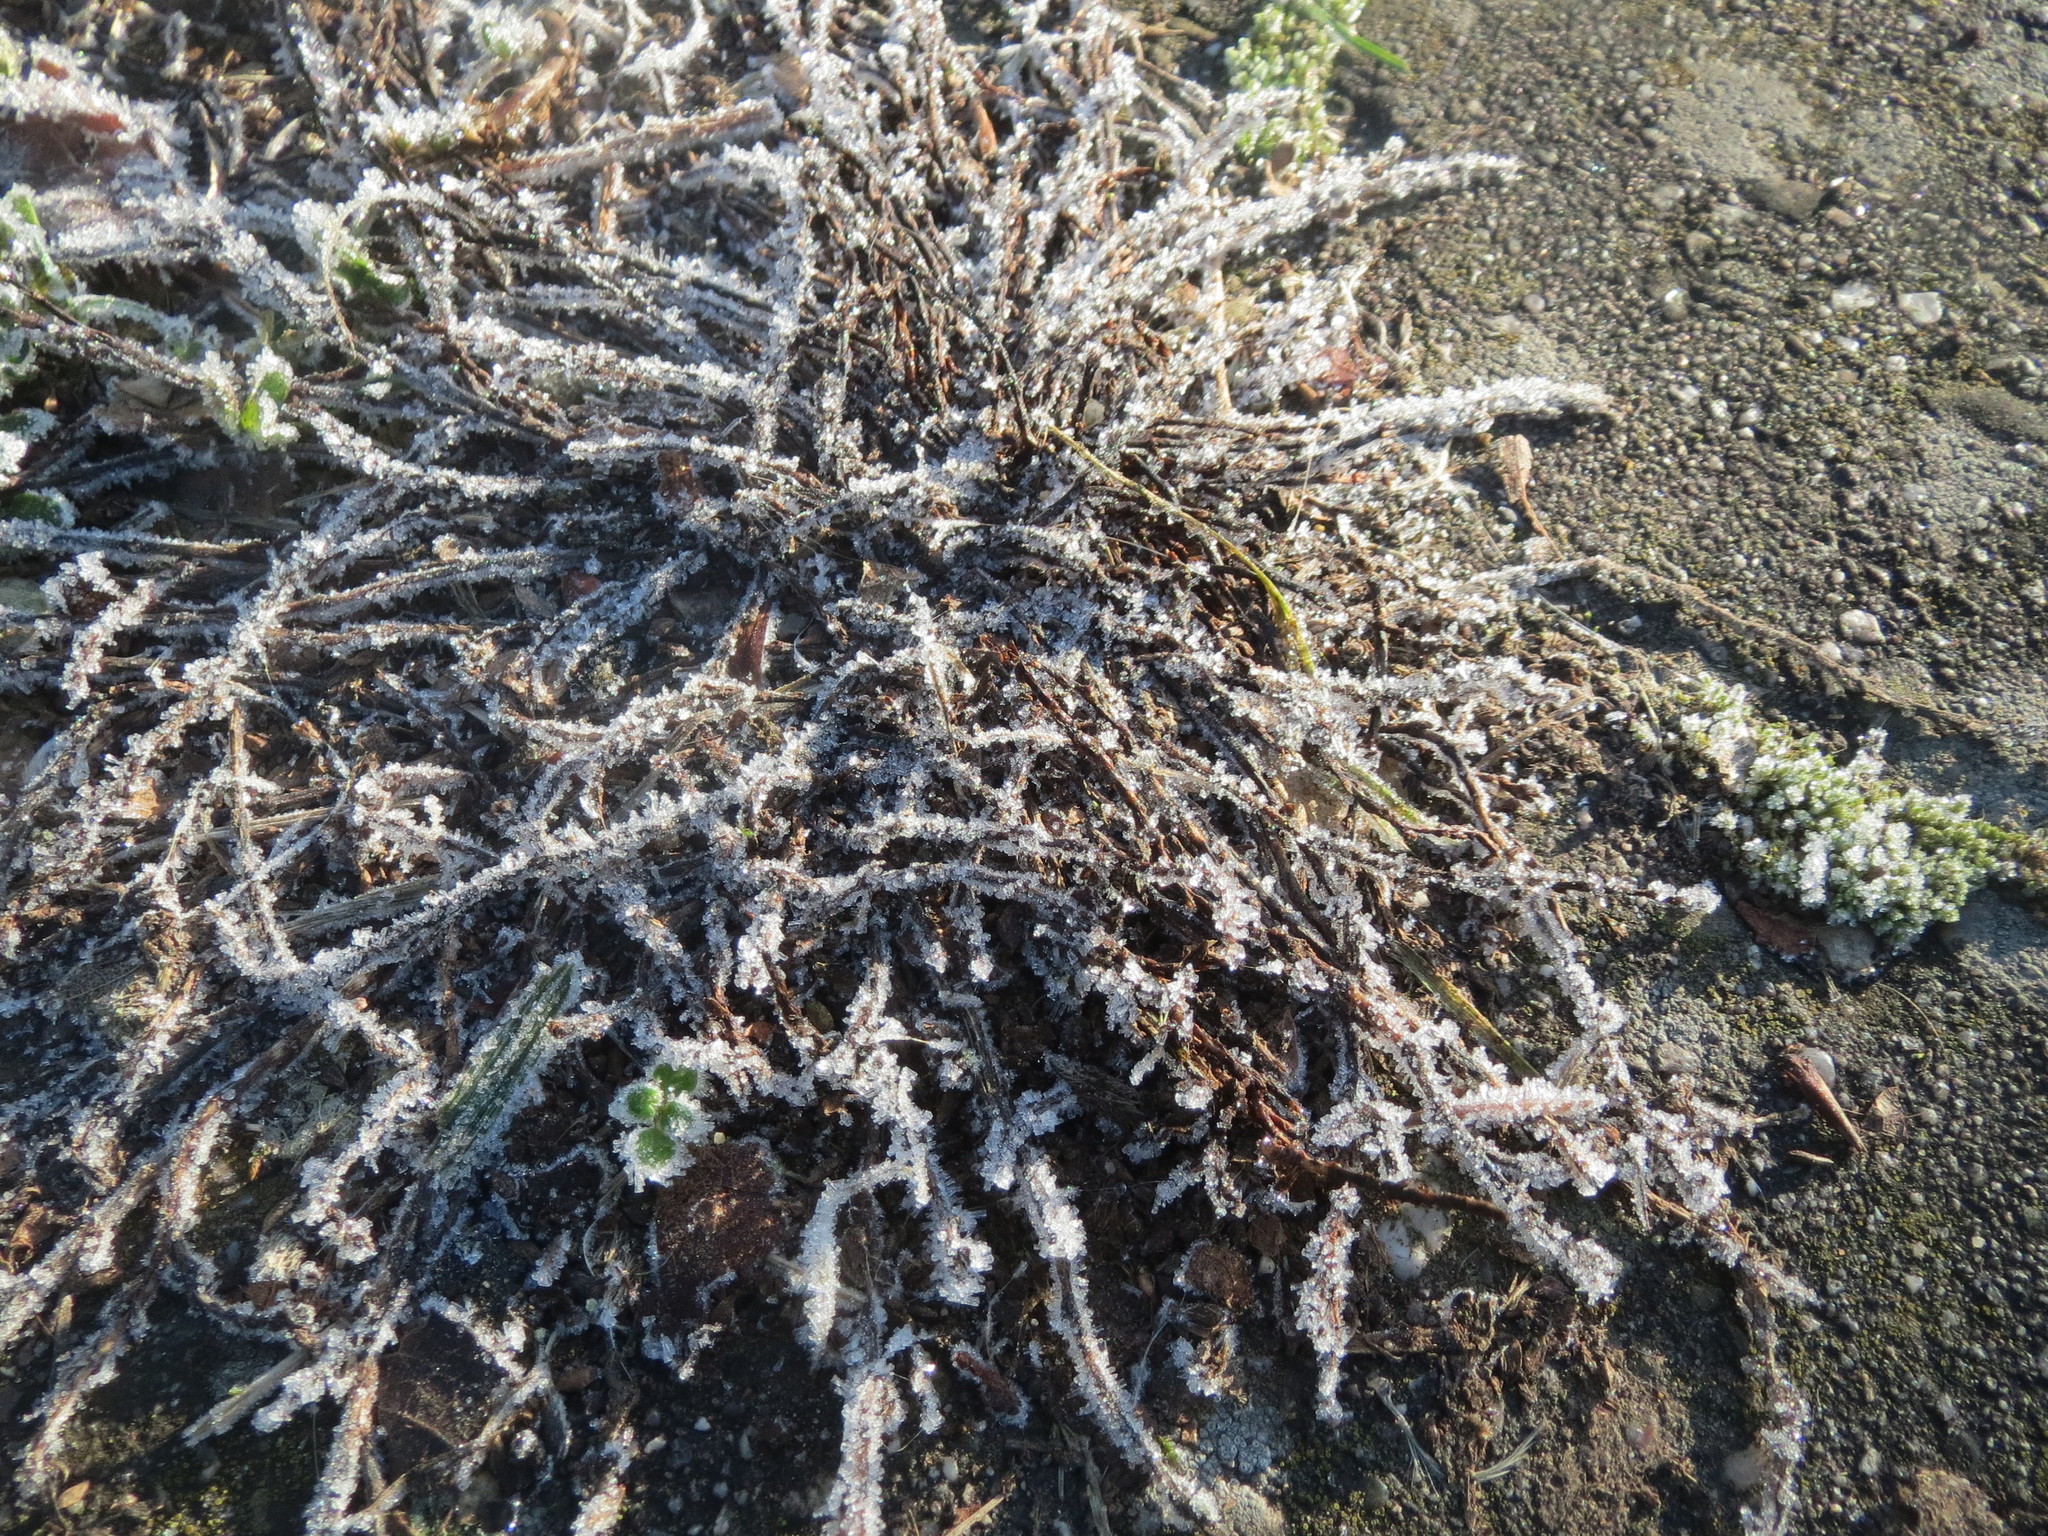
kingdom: Plantae
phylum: Tracheophyta
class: Magnoliopsida
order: Caryophyllales
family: Polygonaceae
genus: Polygonum
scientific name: Polygonum
